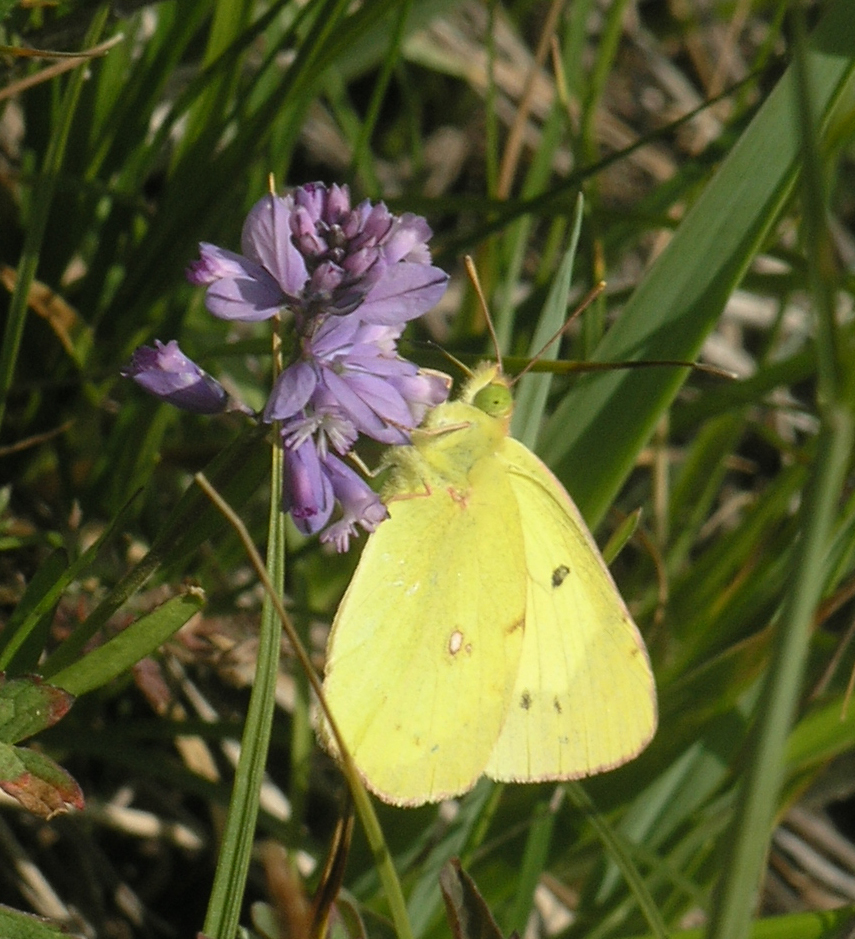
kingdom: Plantae
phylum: Tracheophyta
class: Magnoliopsida
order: Fabales
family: Polygalaceae
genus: Polygala
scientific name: Polygala comosa
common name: Tufted milkwort
